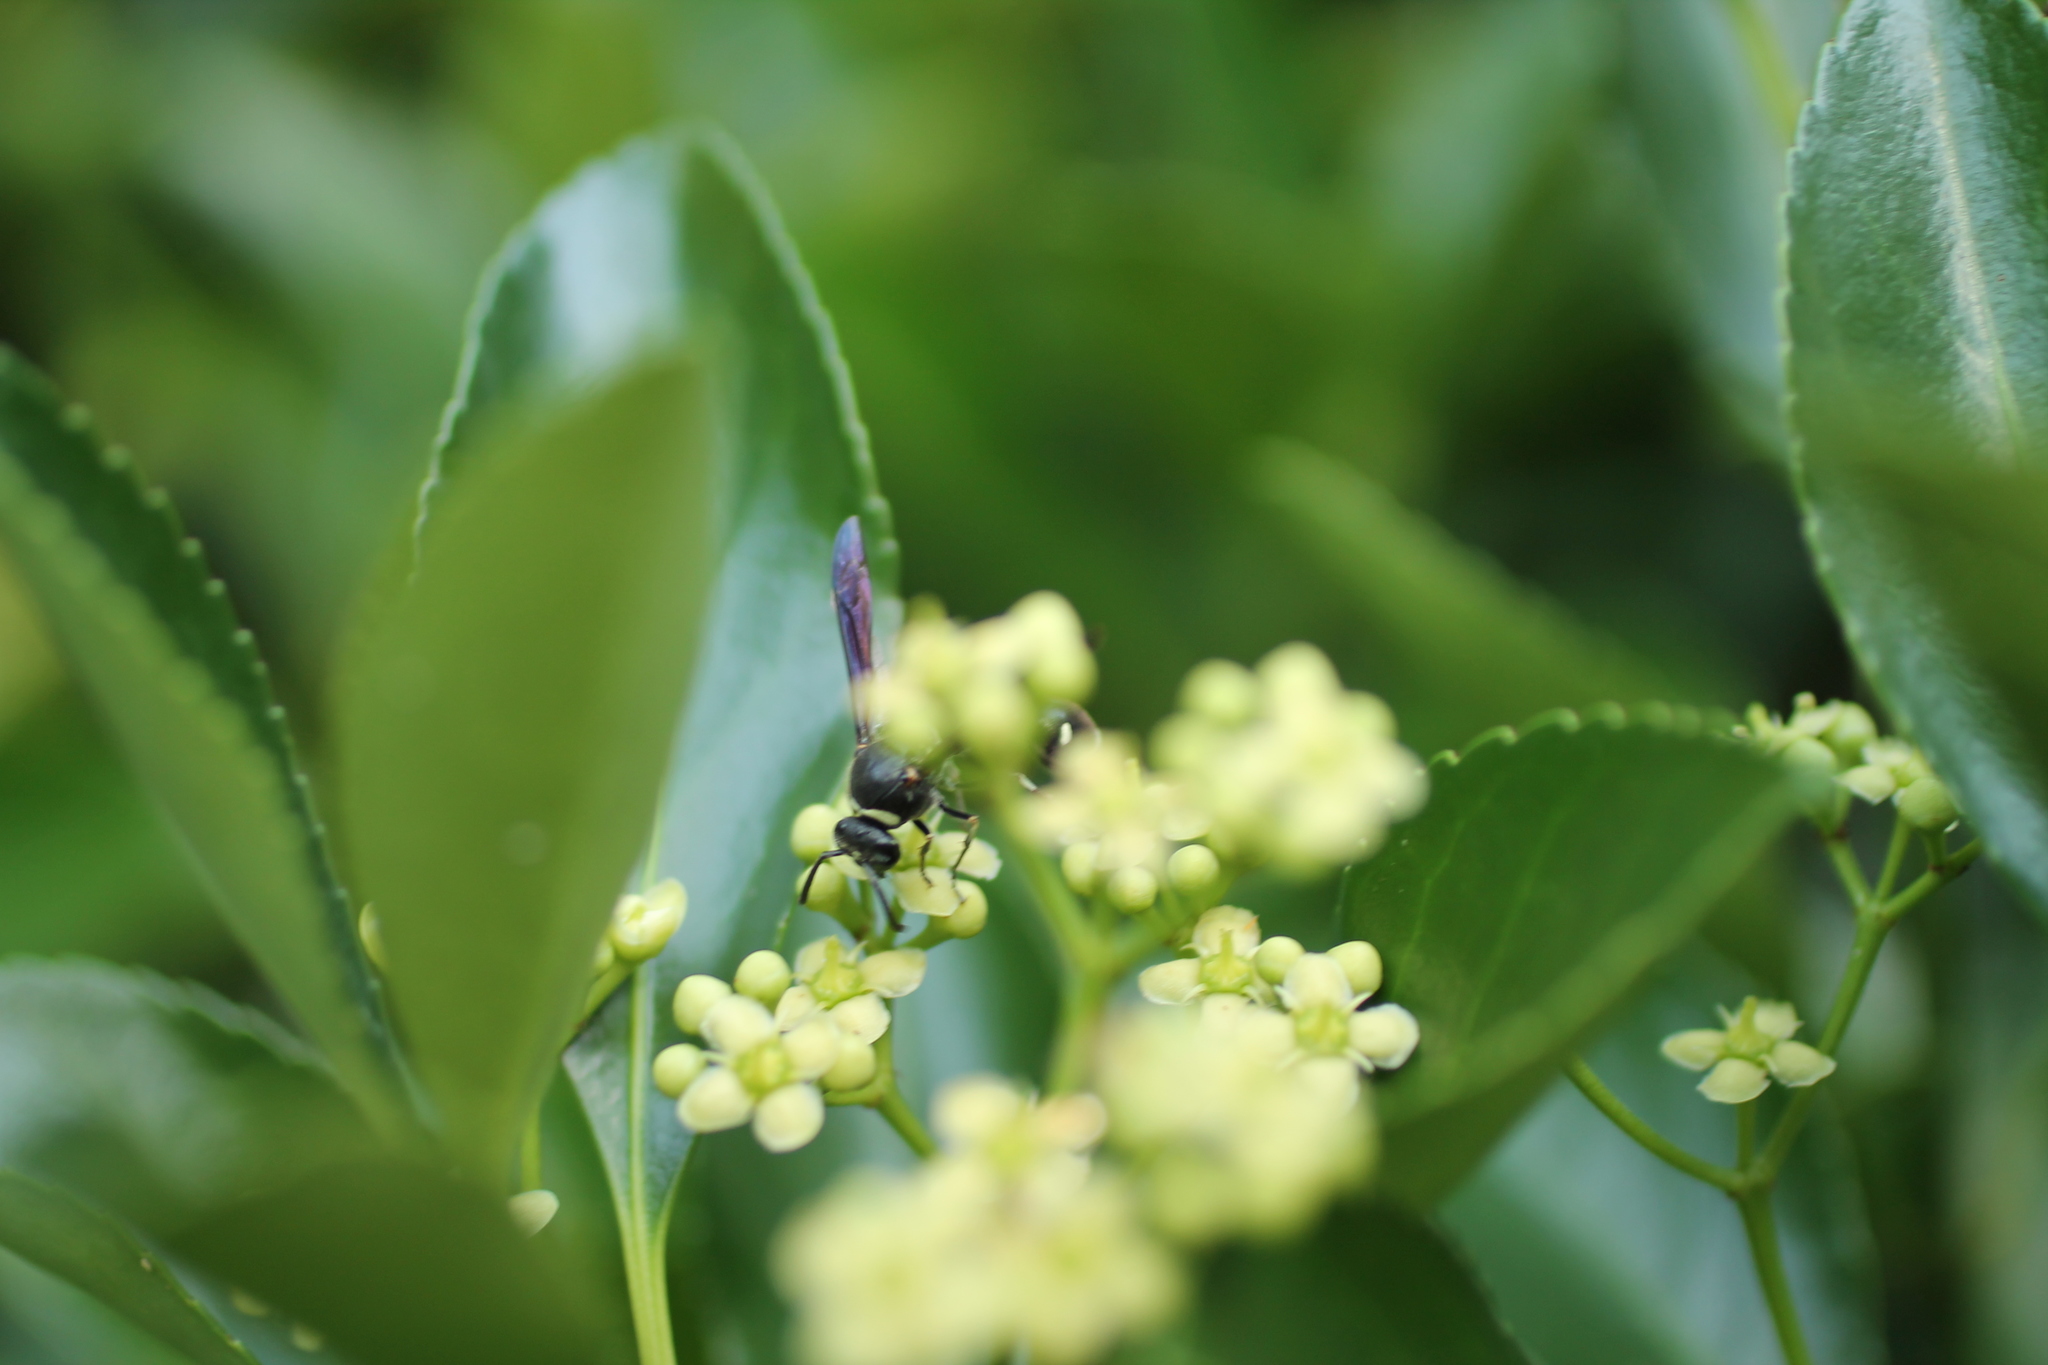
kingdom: Animalia
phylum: Arthropoda
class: Insecta
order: Hymenoptera
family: Vespidae
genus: Eumenes
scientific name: Eumenes fraternus
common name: Fraternal potter wasp
